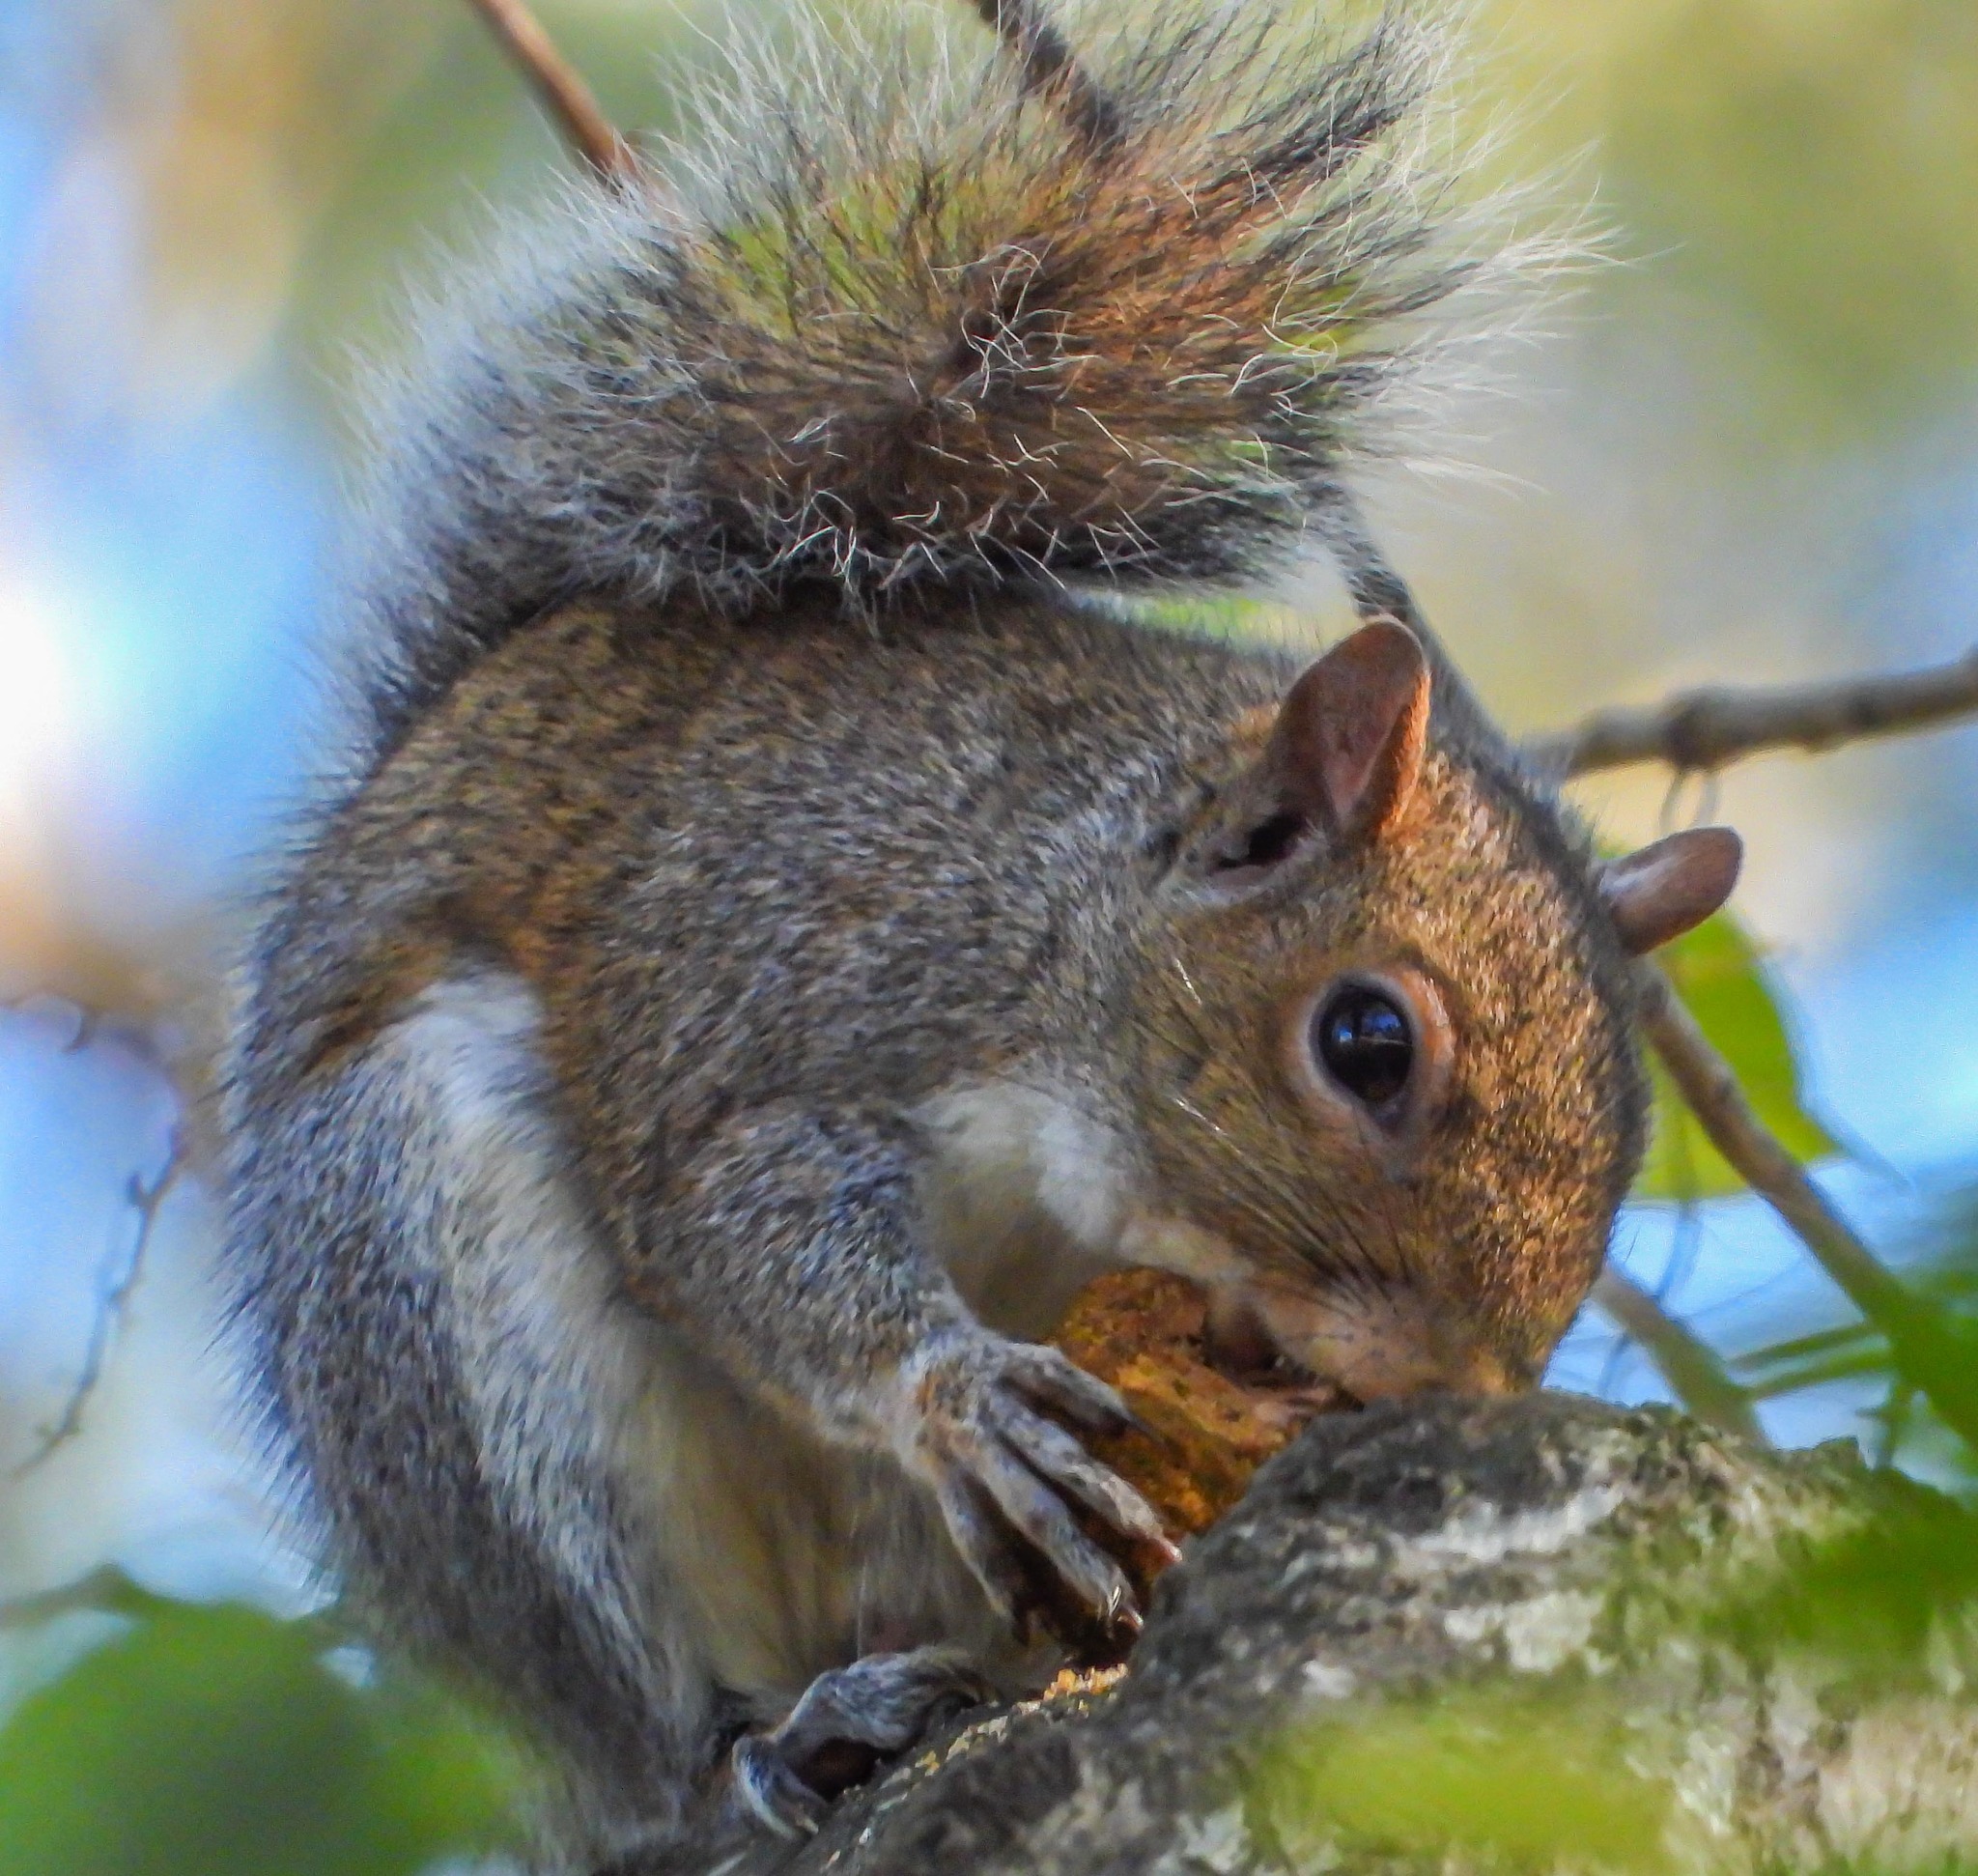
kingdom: Animalia
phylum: Chordata
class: Mammalia
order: Rodentia
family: Sciuridae
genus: Sciurus
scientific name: Sciurus carolinensis
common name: Eastern gray squirrel
